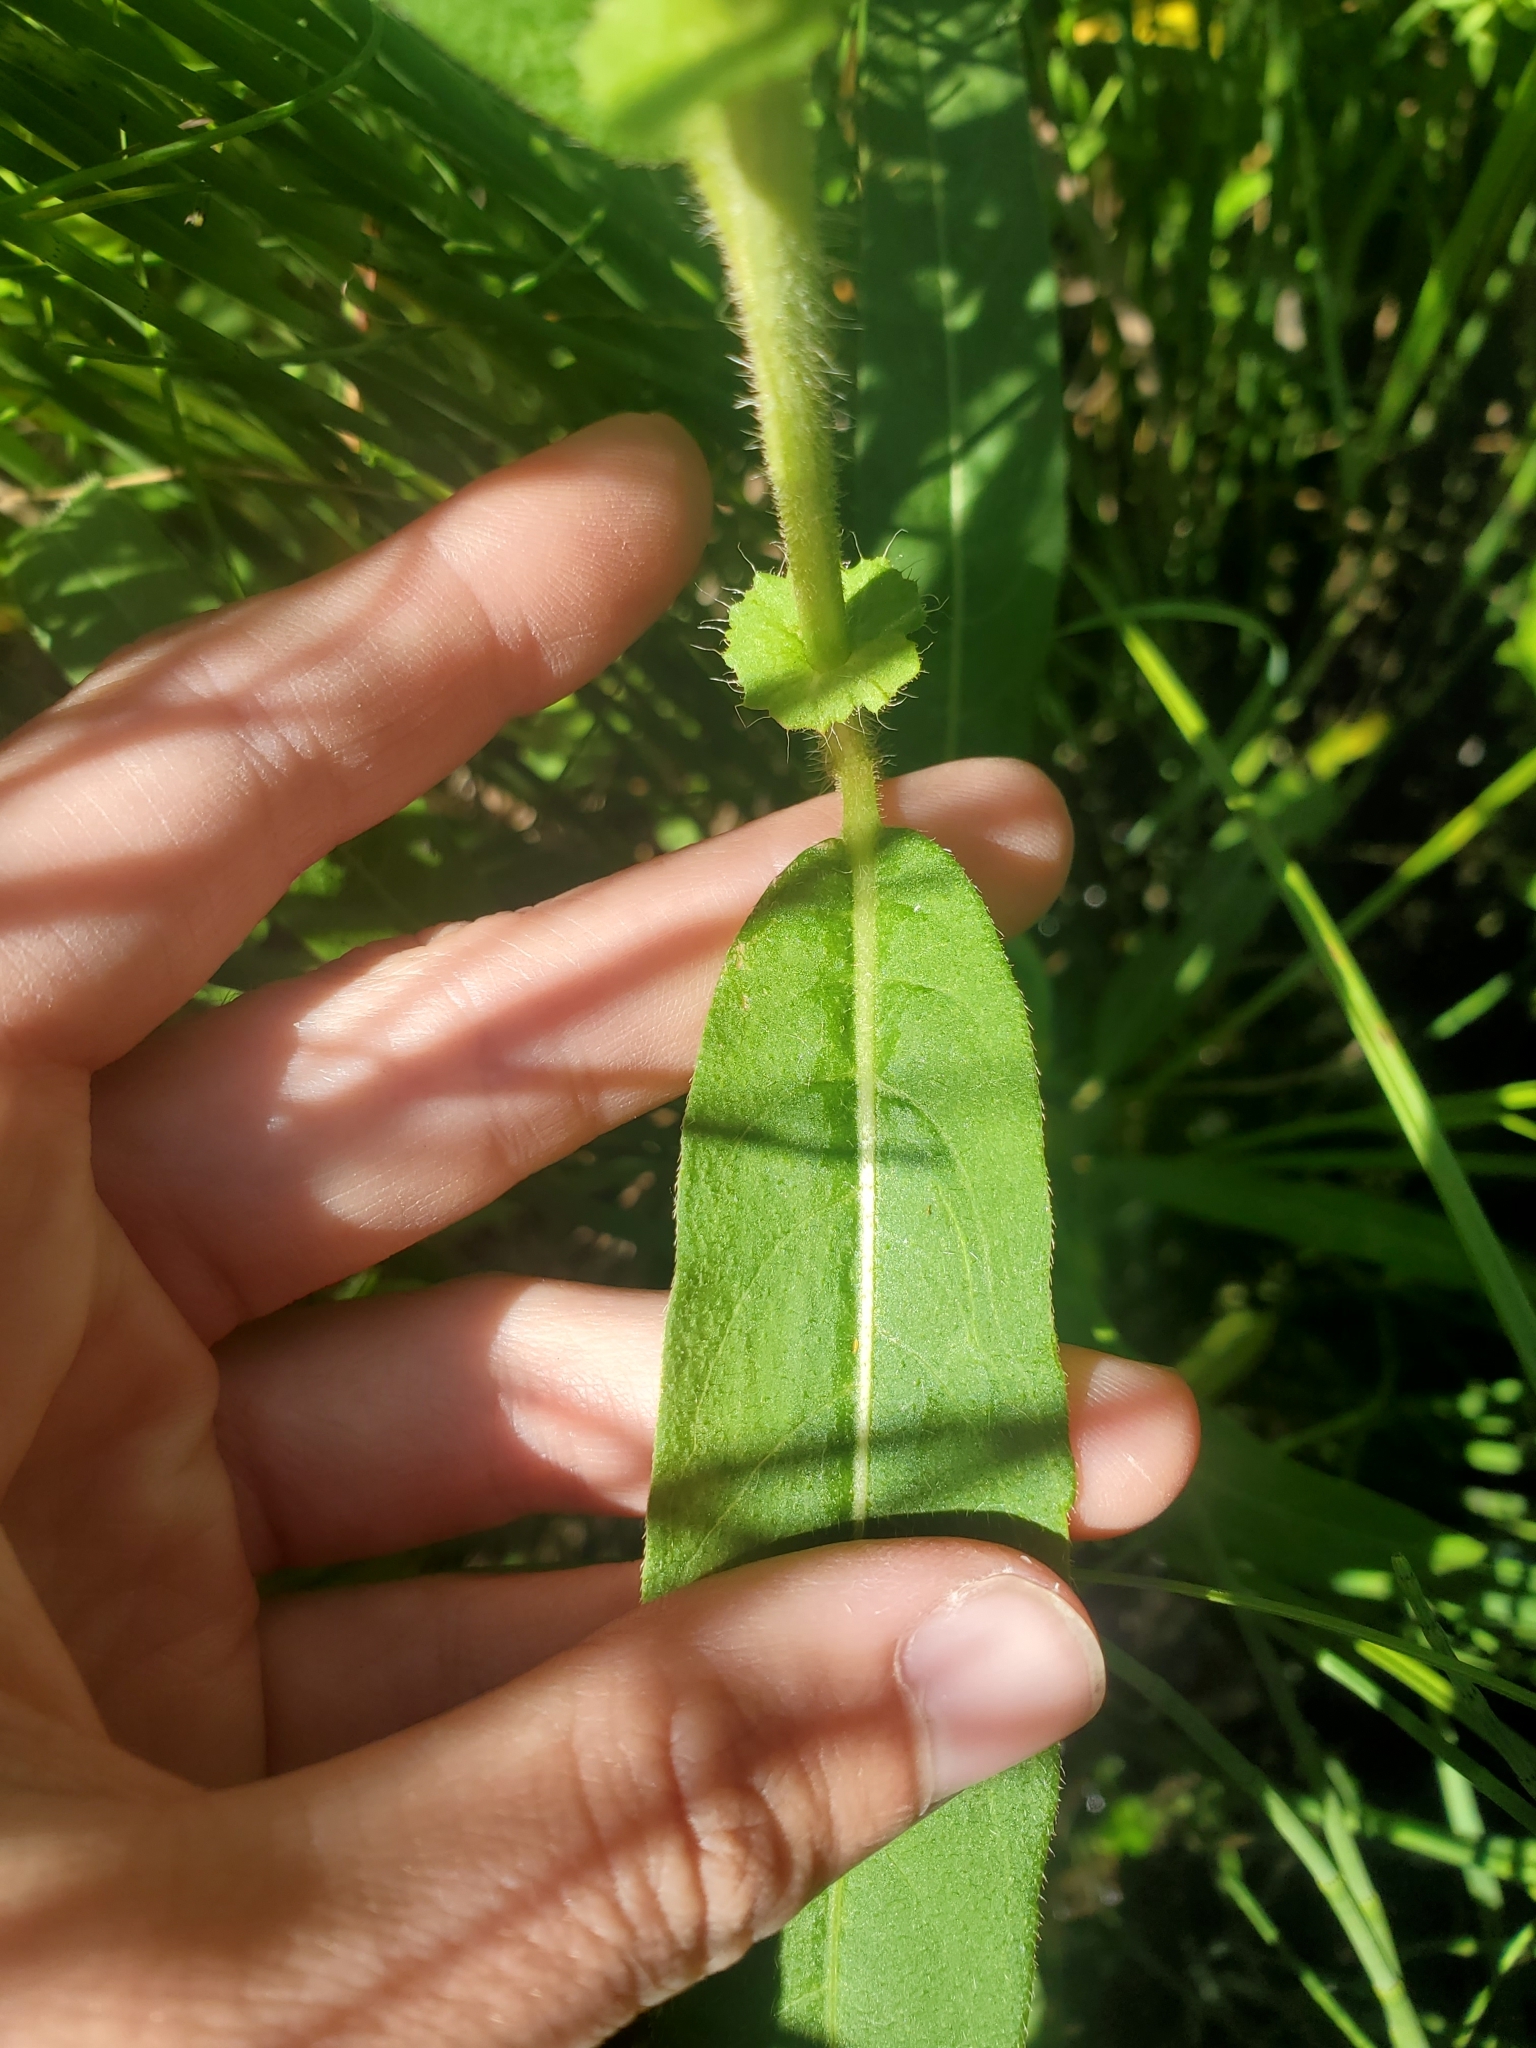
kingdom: Plantae
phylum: Tracheophyta
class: Magnoliopsida
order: Caryophyllales
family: Polygonaceae
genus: Persicaria
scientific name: Persicaria amphibia
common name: Amphibious bistort
